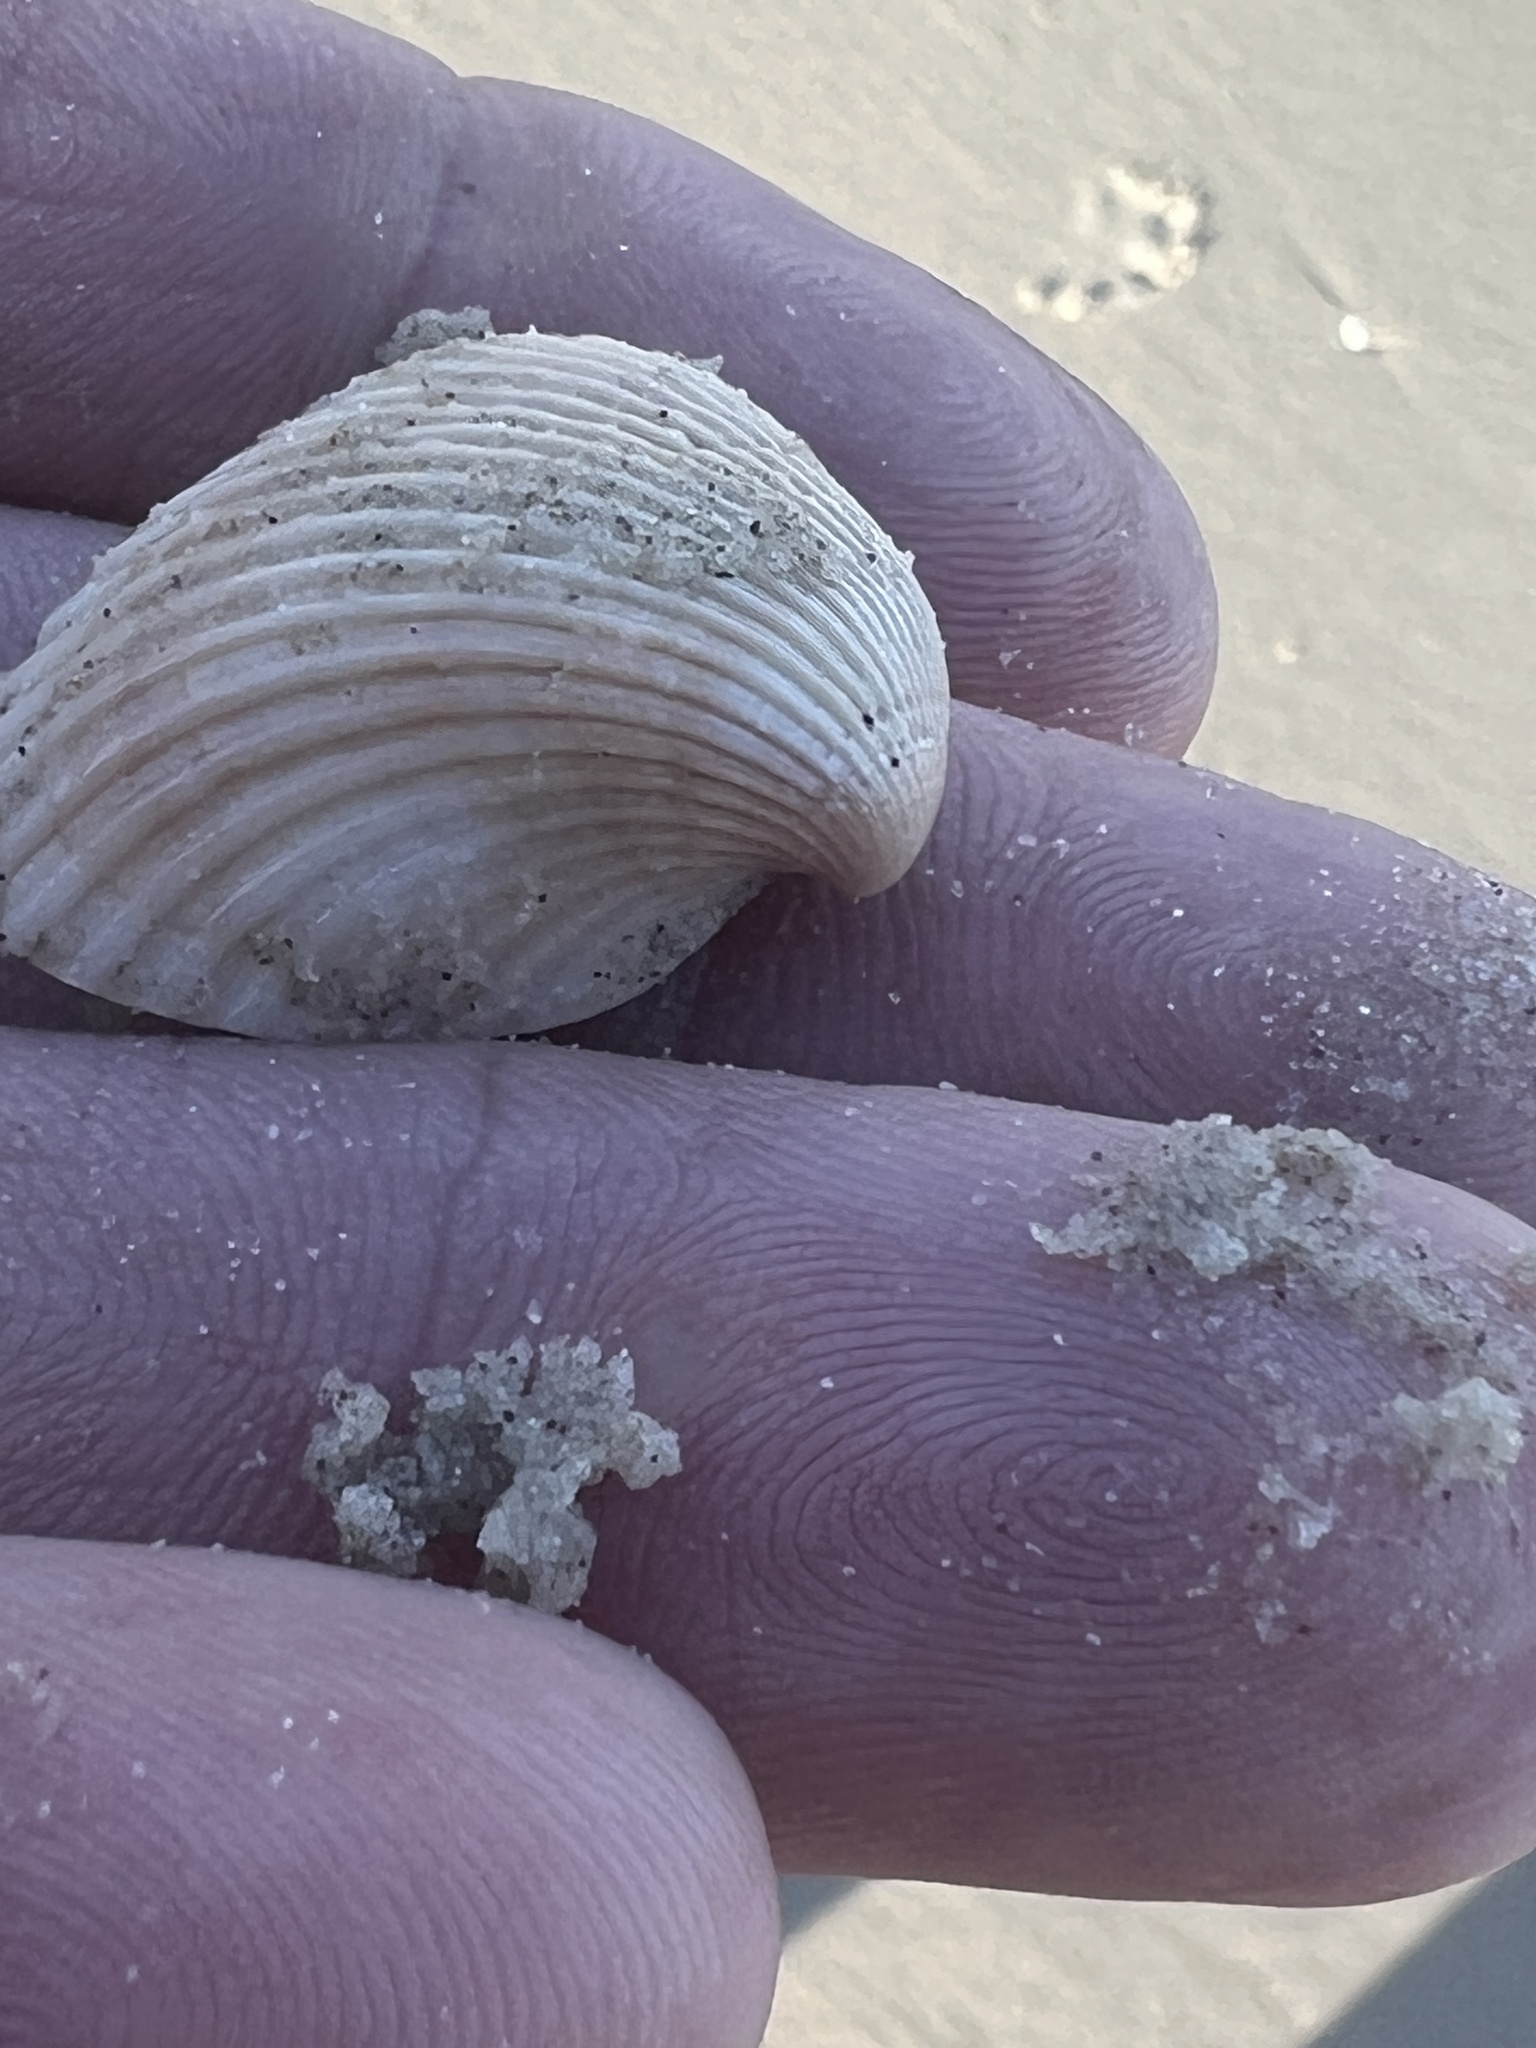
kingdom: Animalia
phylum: Mollusca
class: Bivalvia
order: Arcida
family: Noetiidae
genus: Noetia
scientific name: Noetia ponderosa
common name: Ponderous ark
